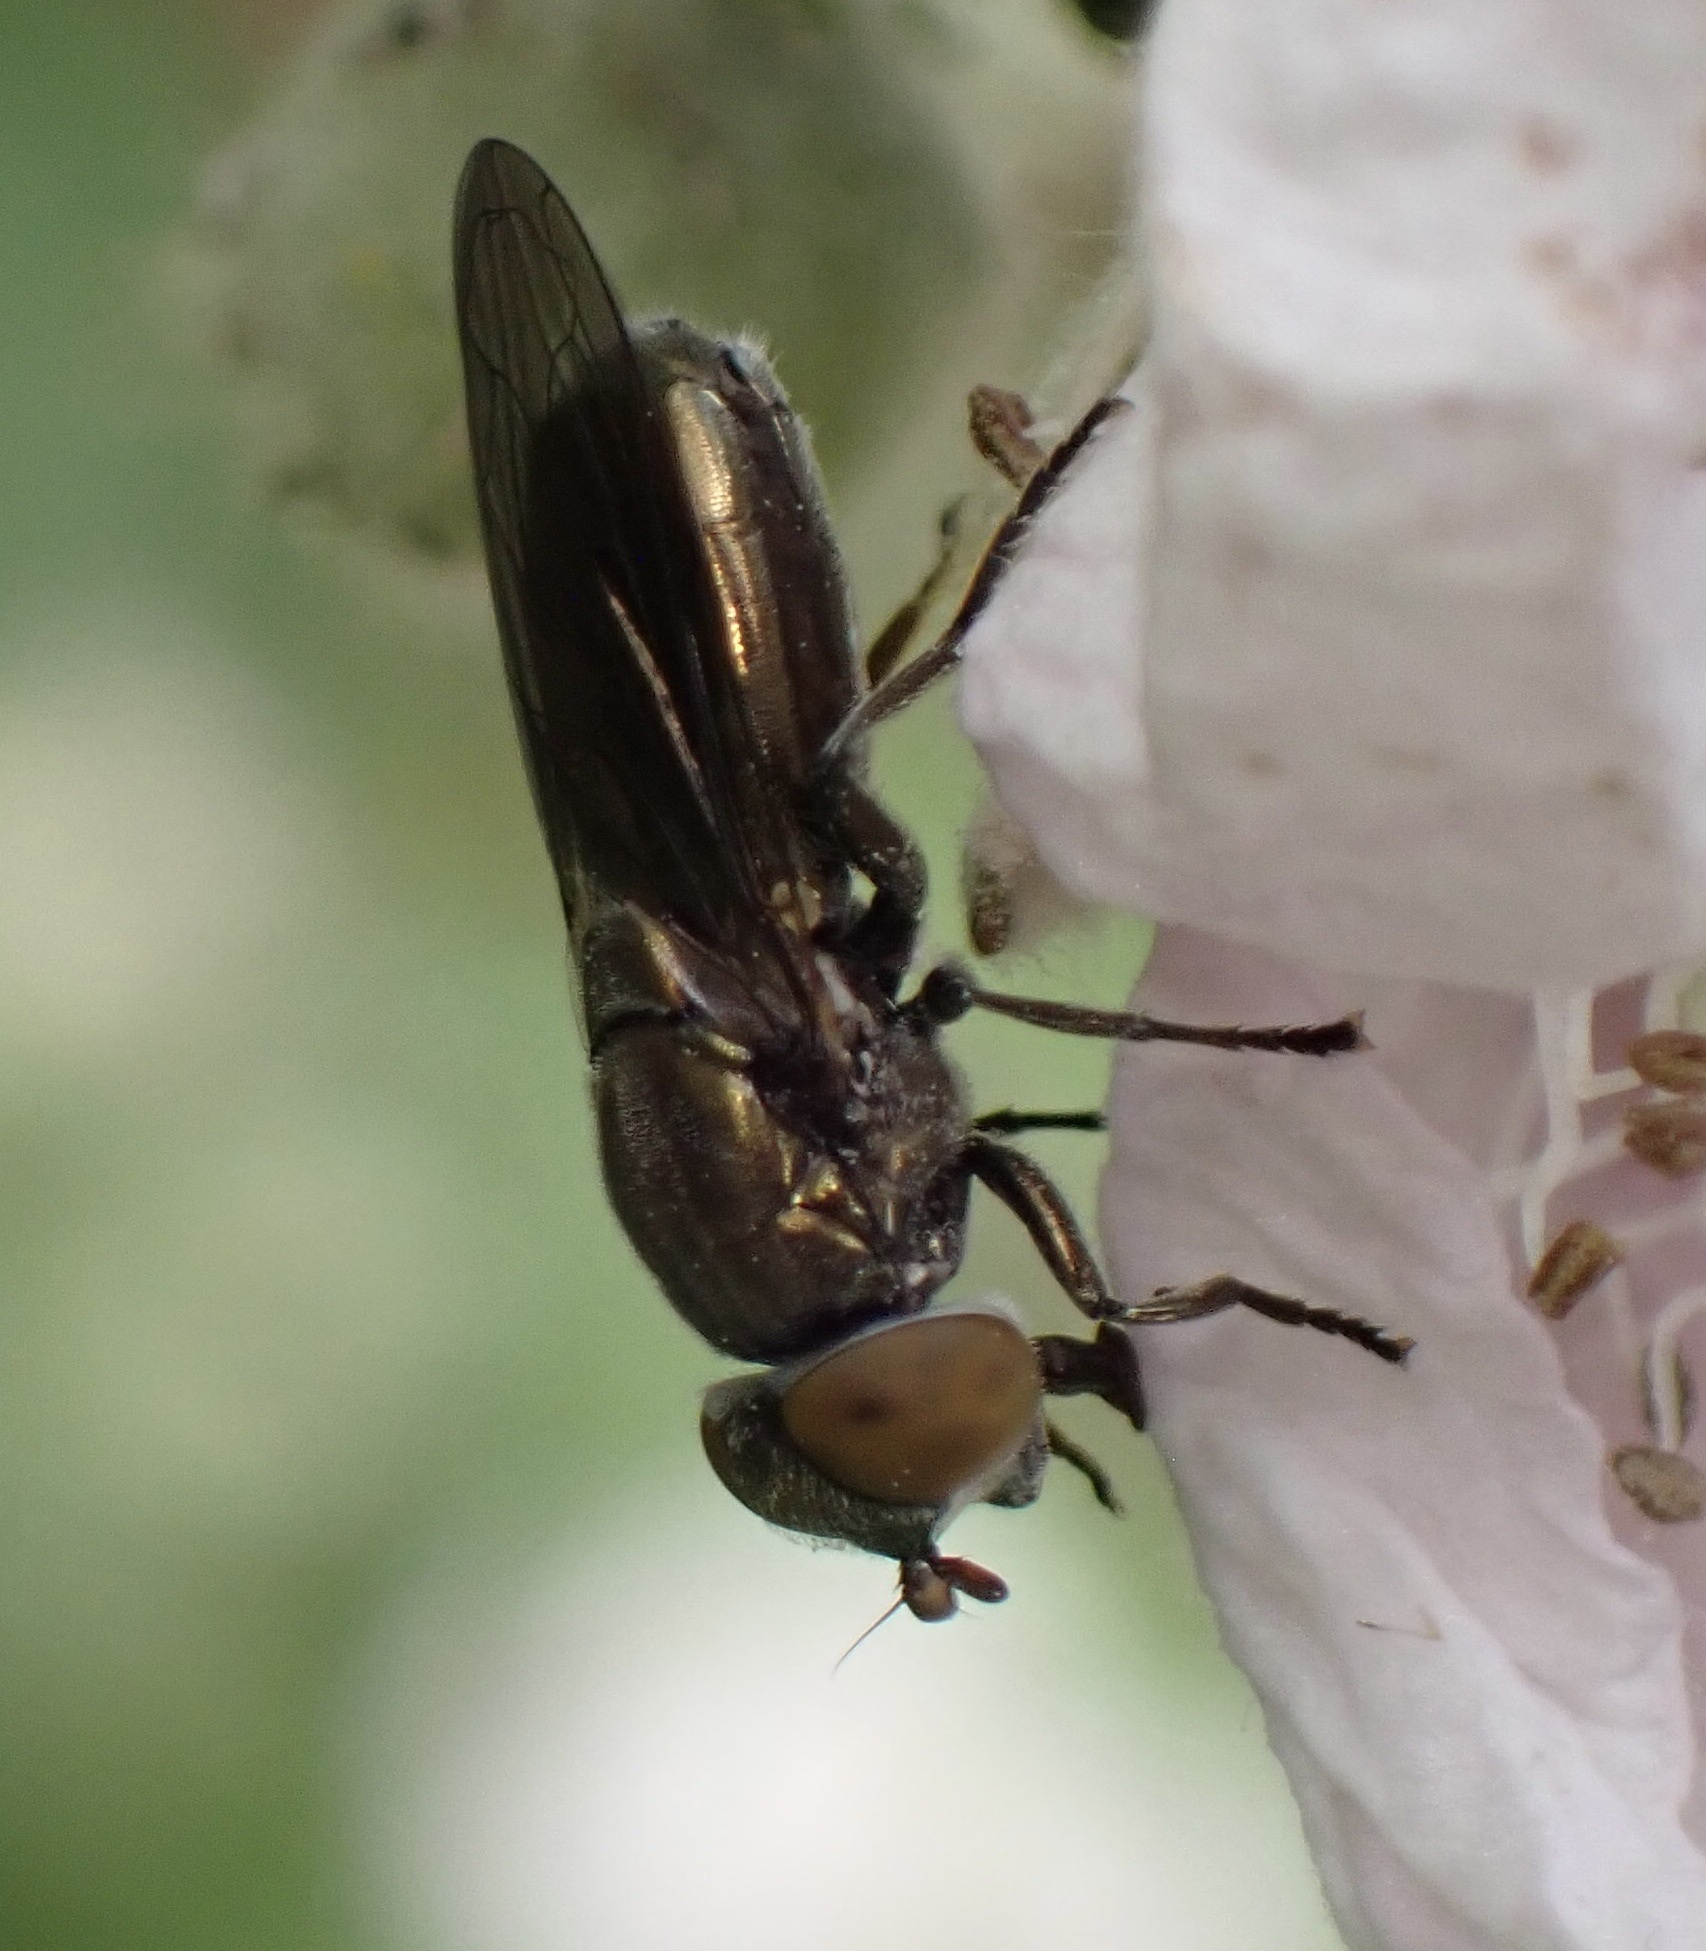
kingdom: Animalia
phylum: Arthropoda
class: Insecta
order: Diptera
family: Syrphidae
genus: Orthonevra
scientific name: Orthonevra splendens
